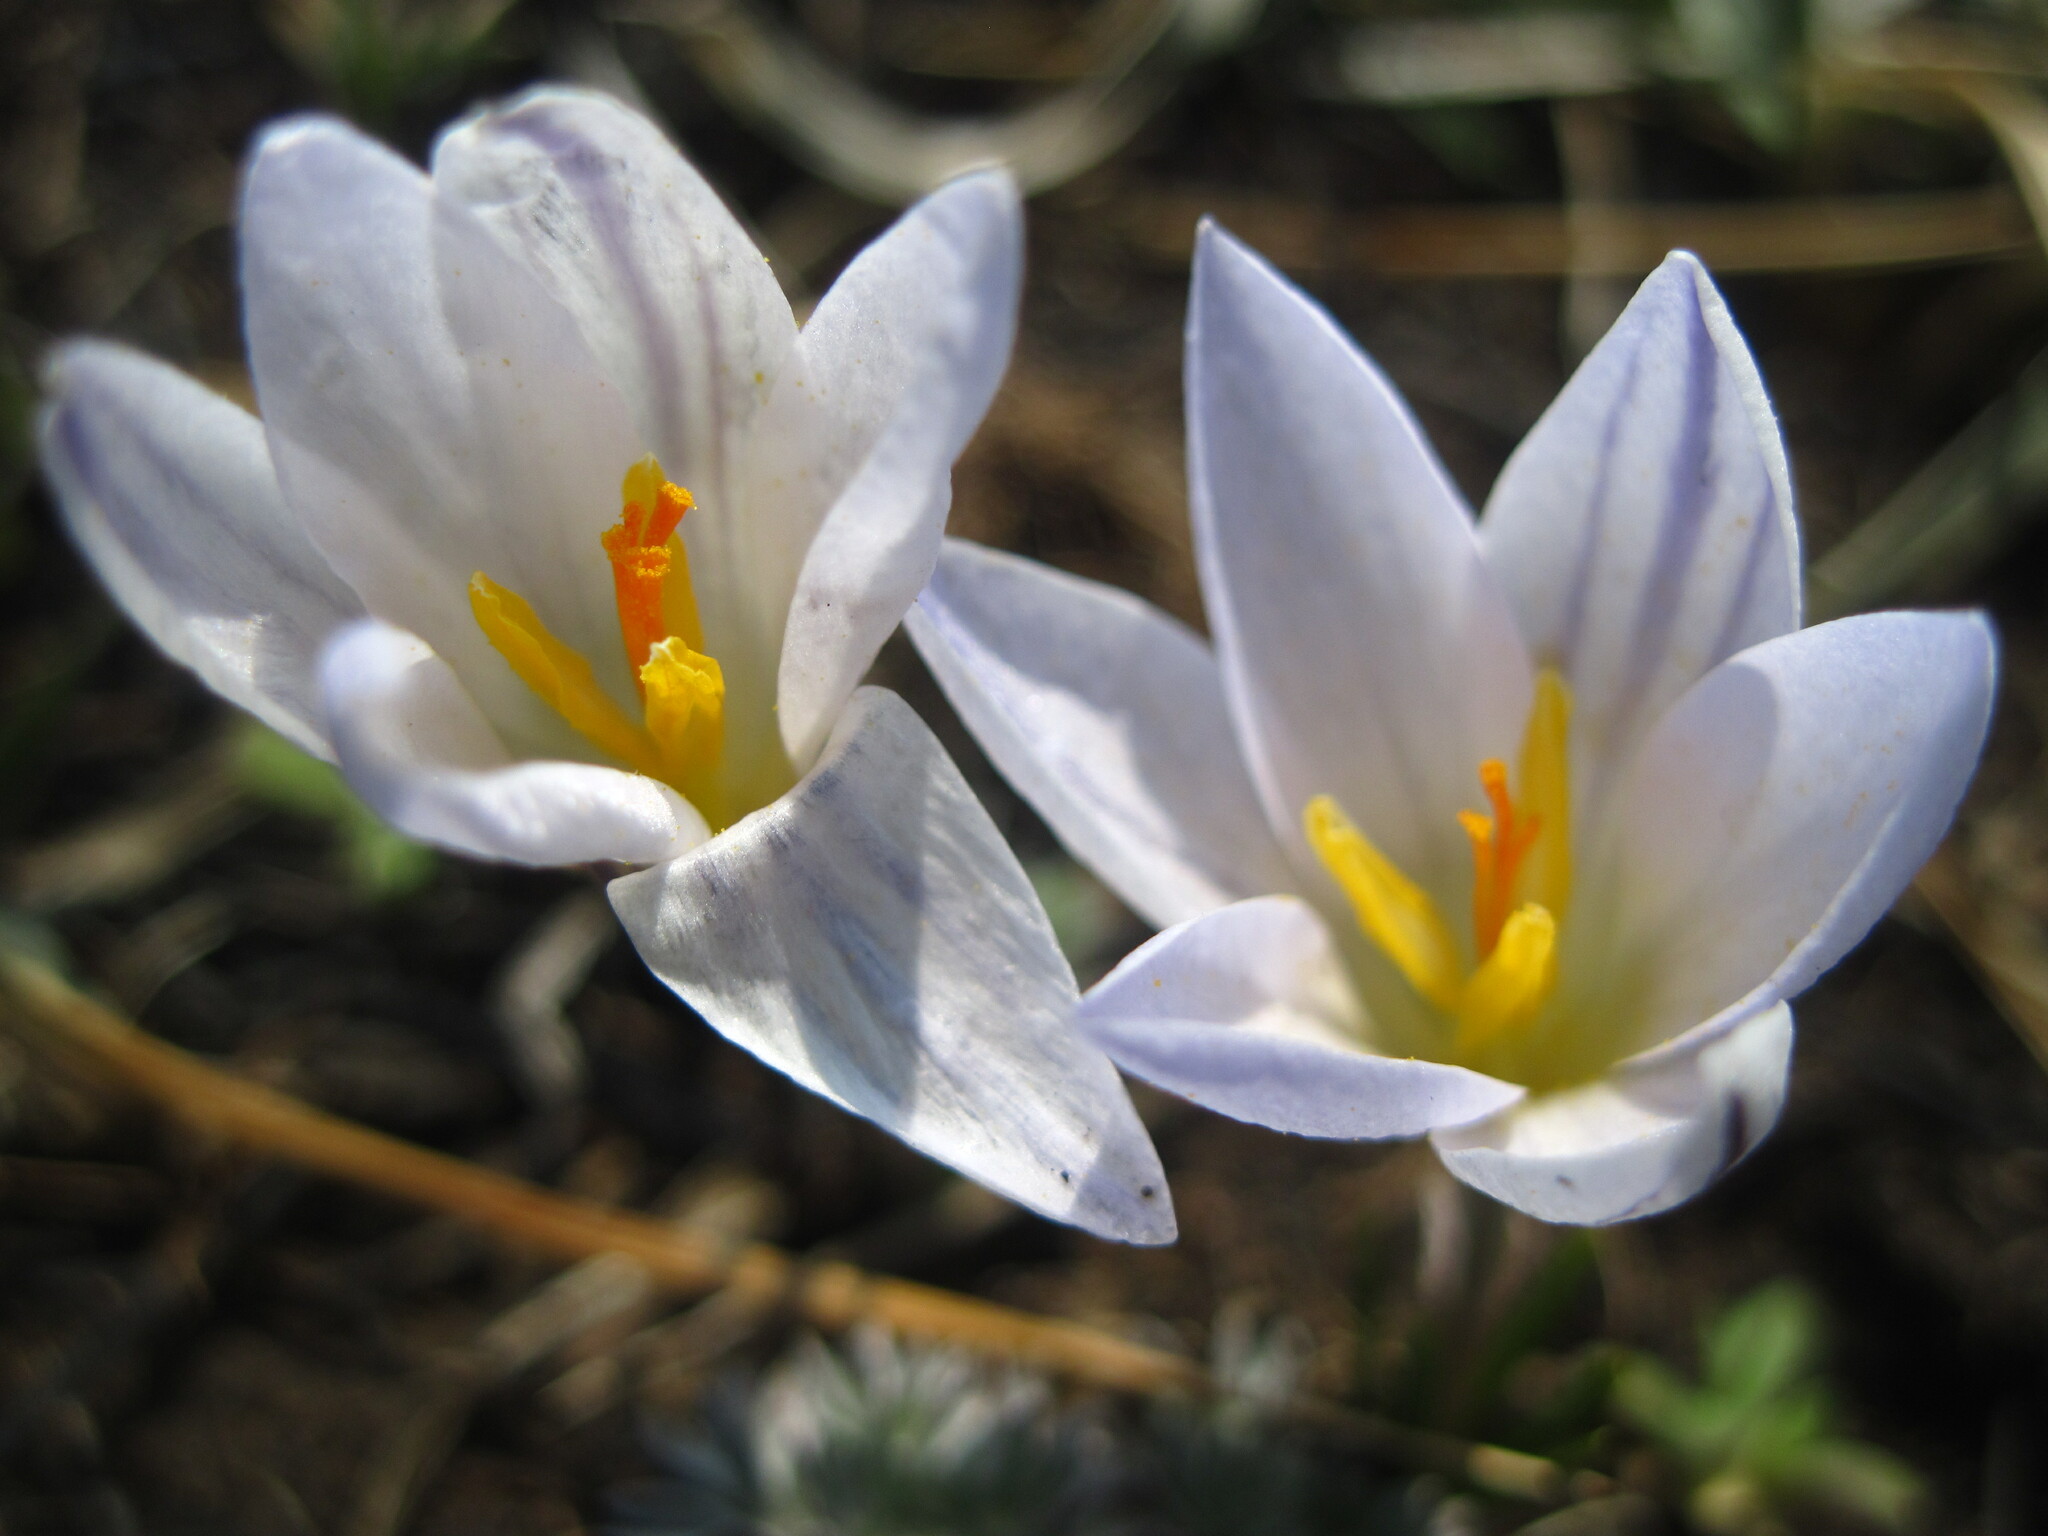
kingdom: Plantae
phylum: Tracheophyta
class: Liliopsida
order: Asparagales
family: Iridaceae
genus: Crocus
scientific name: Crocus reticulatus
